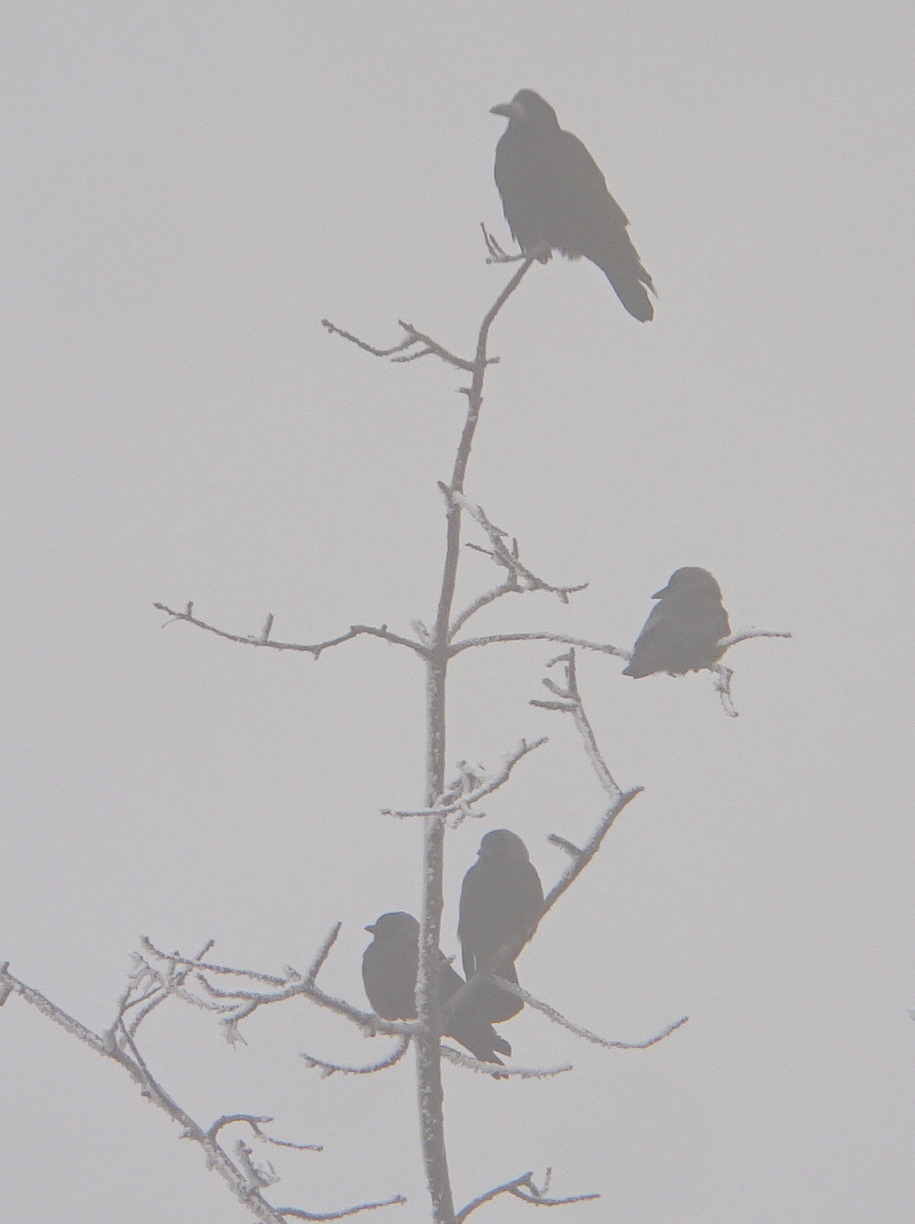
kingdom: Animalia
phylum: Chordata
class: Aves
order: Passeriformes
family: Corvidae
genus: Coloeus
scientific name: Coloeus monedula
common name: Western jackdaw
